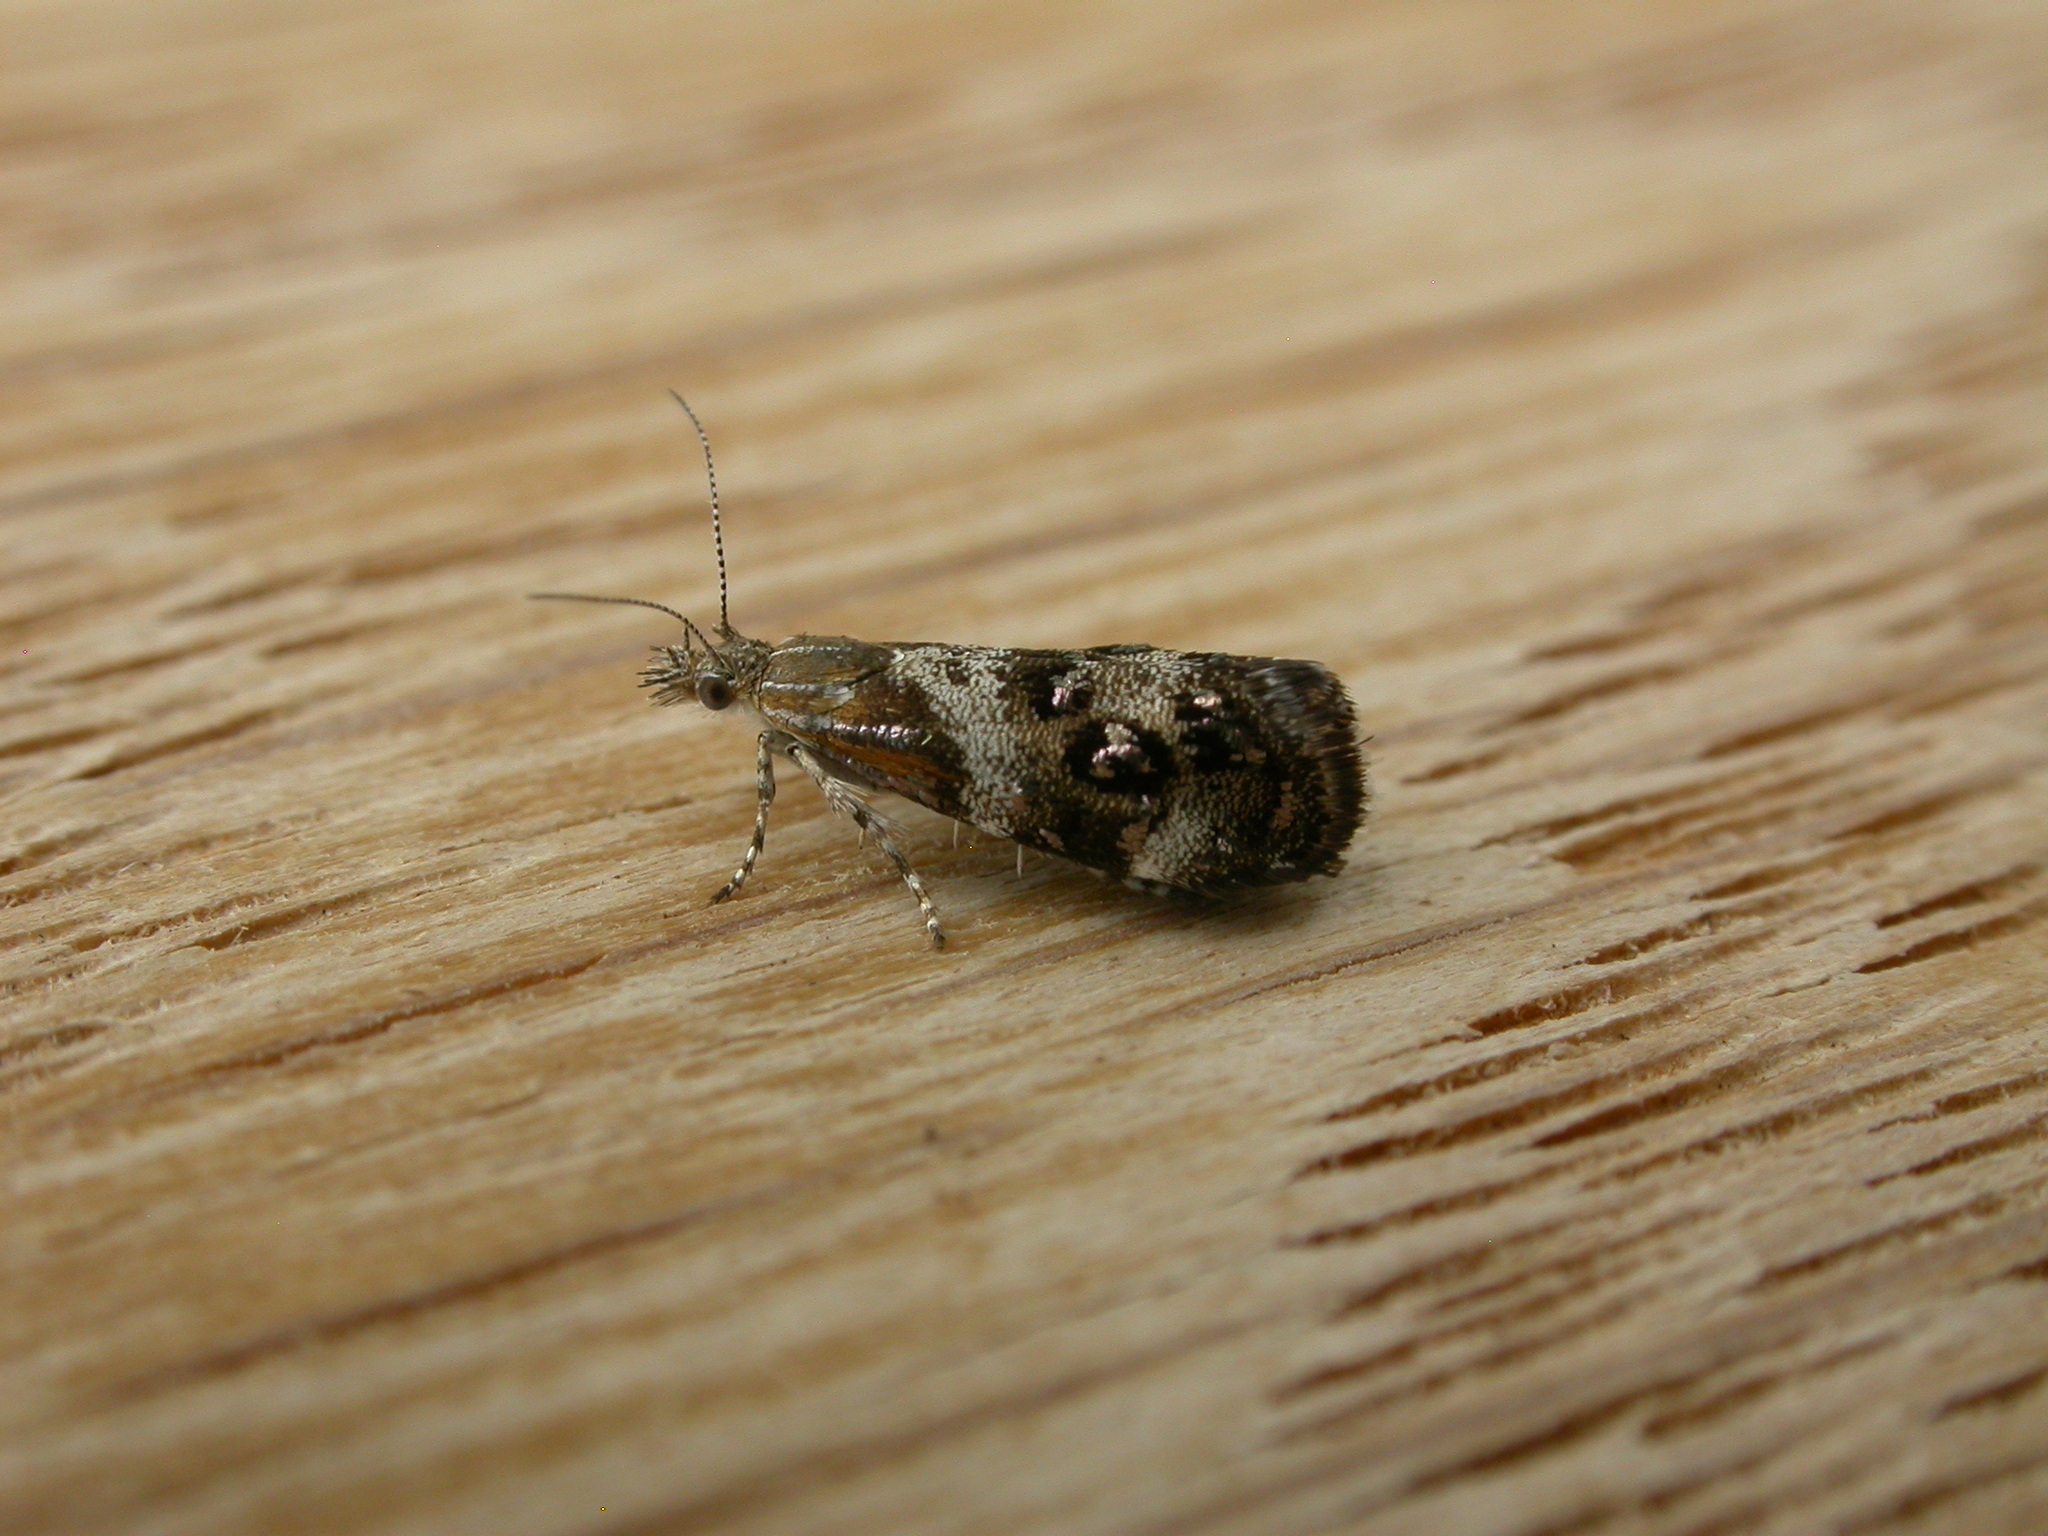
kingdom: Animalia
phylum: Arthropoda
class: Insecta
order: Lepidoptera
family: Choreutidae
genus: Tebenna
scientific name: Tebenna micalis
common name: Vagrant twitcher
